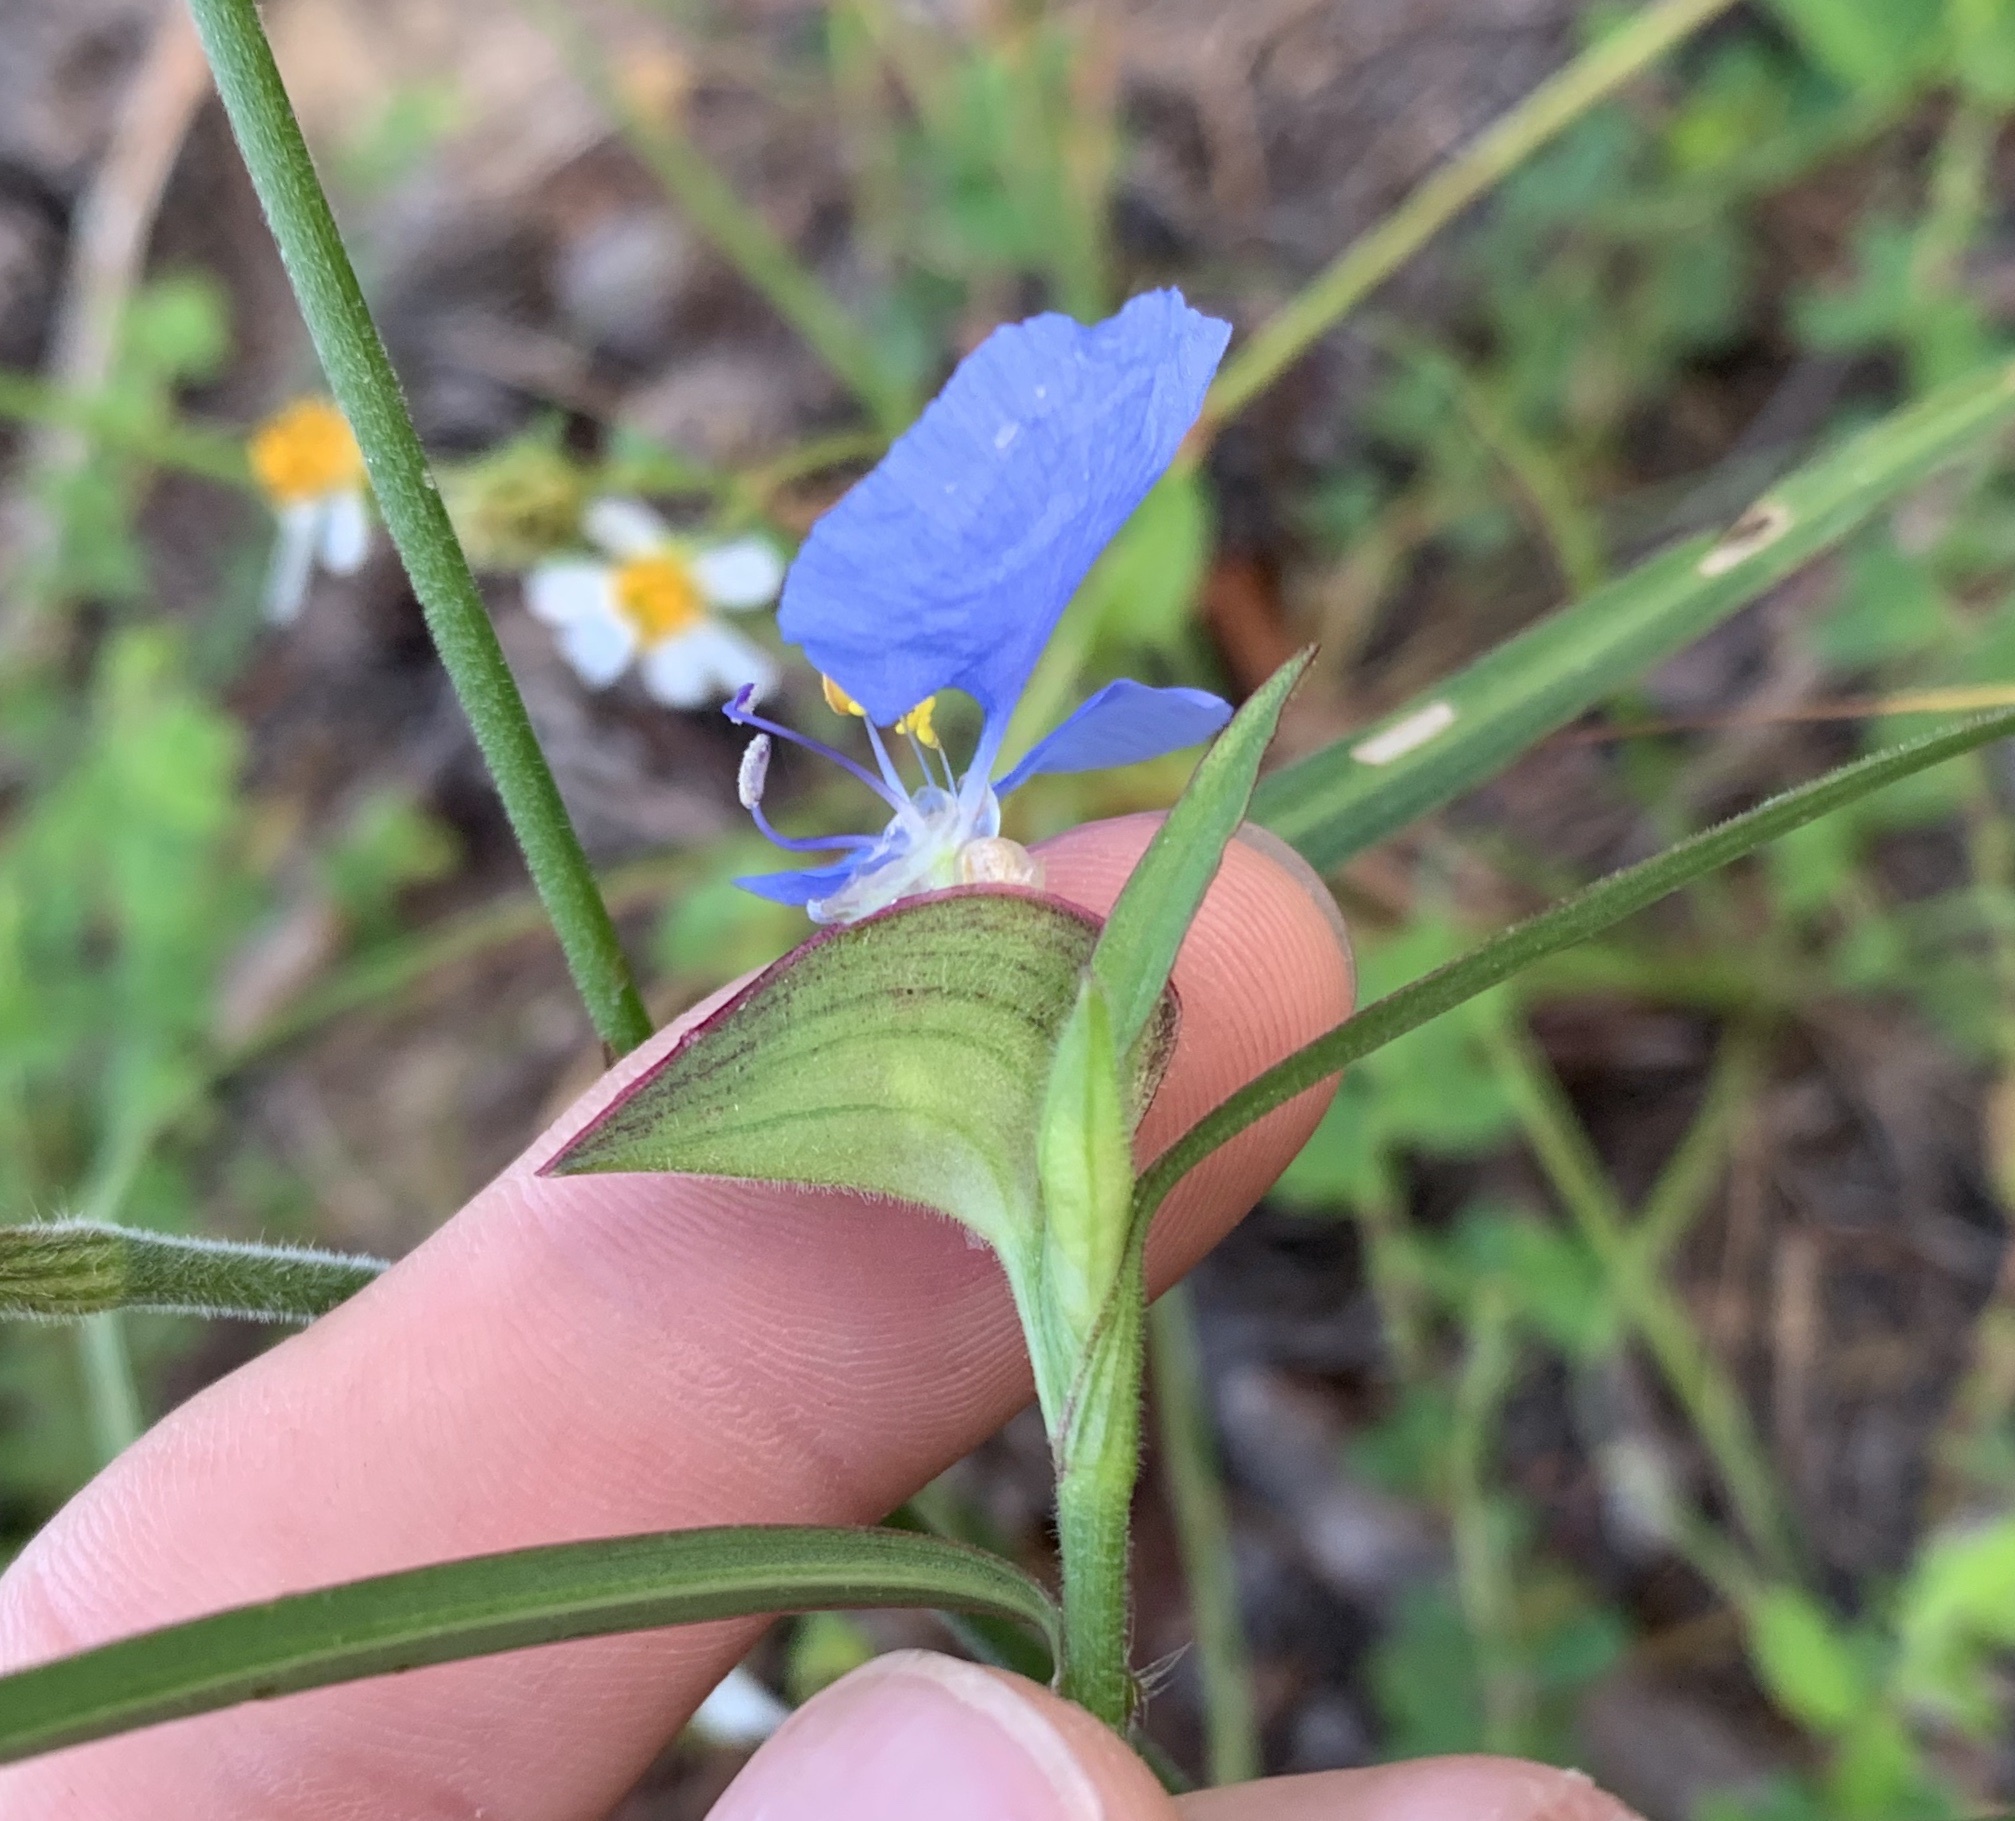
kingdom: Plantae
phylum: Tracheophyta
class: Liliopsida
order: Commelinales
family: Commelinaceae
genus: Commelina
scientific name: Commelina erecta
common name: Blousel blommetjie
